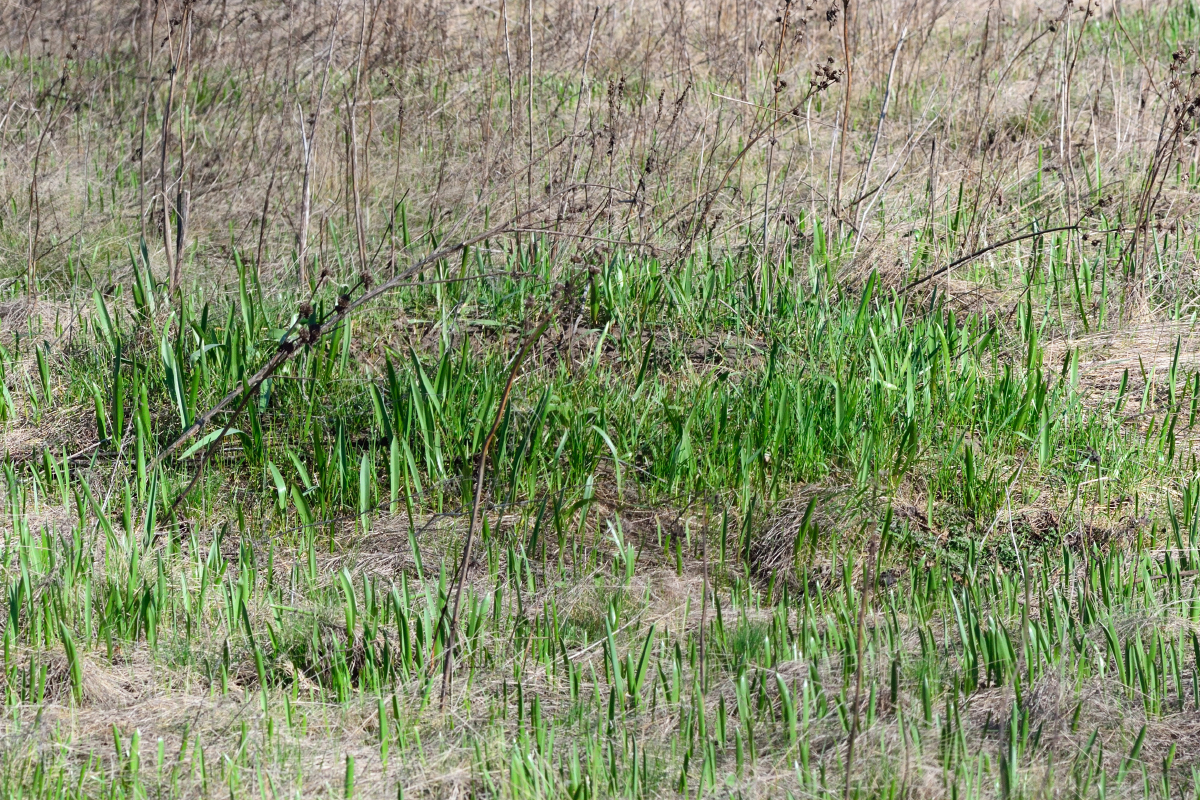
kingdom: Plantae
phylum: Tracheophyta
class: Liliopsida
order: Liliales
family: Liliaceae
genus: Tulipa
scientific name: Tulipa sylvestris
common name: Wild tulip
